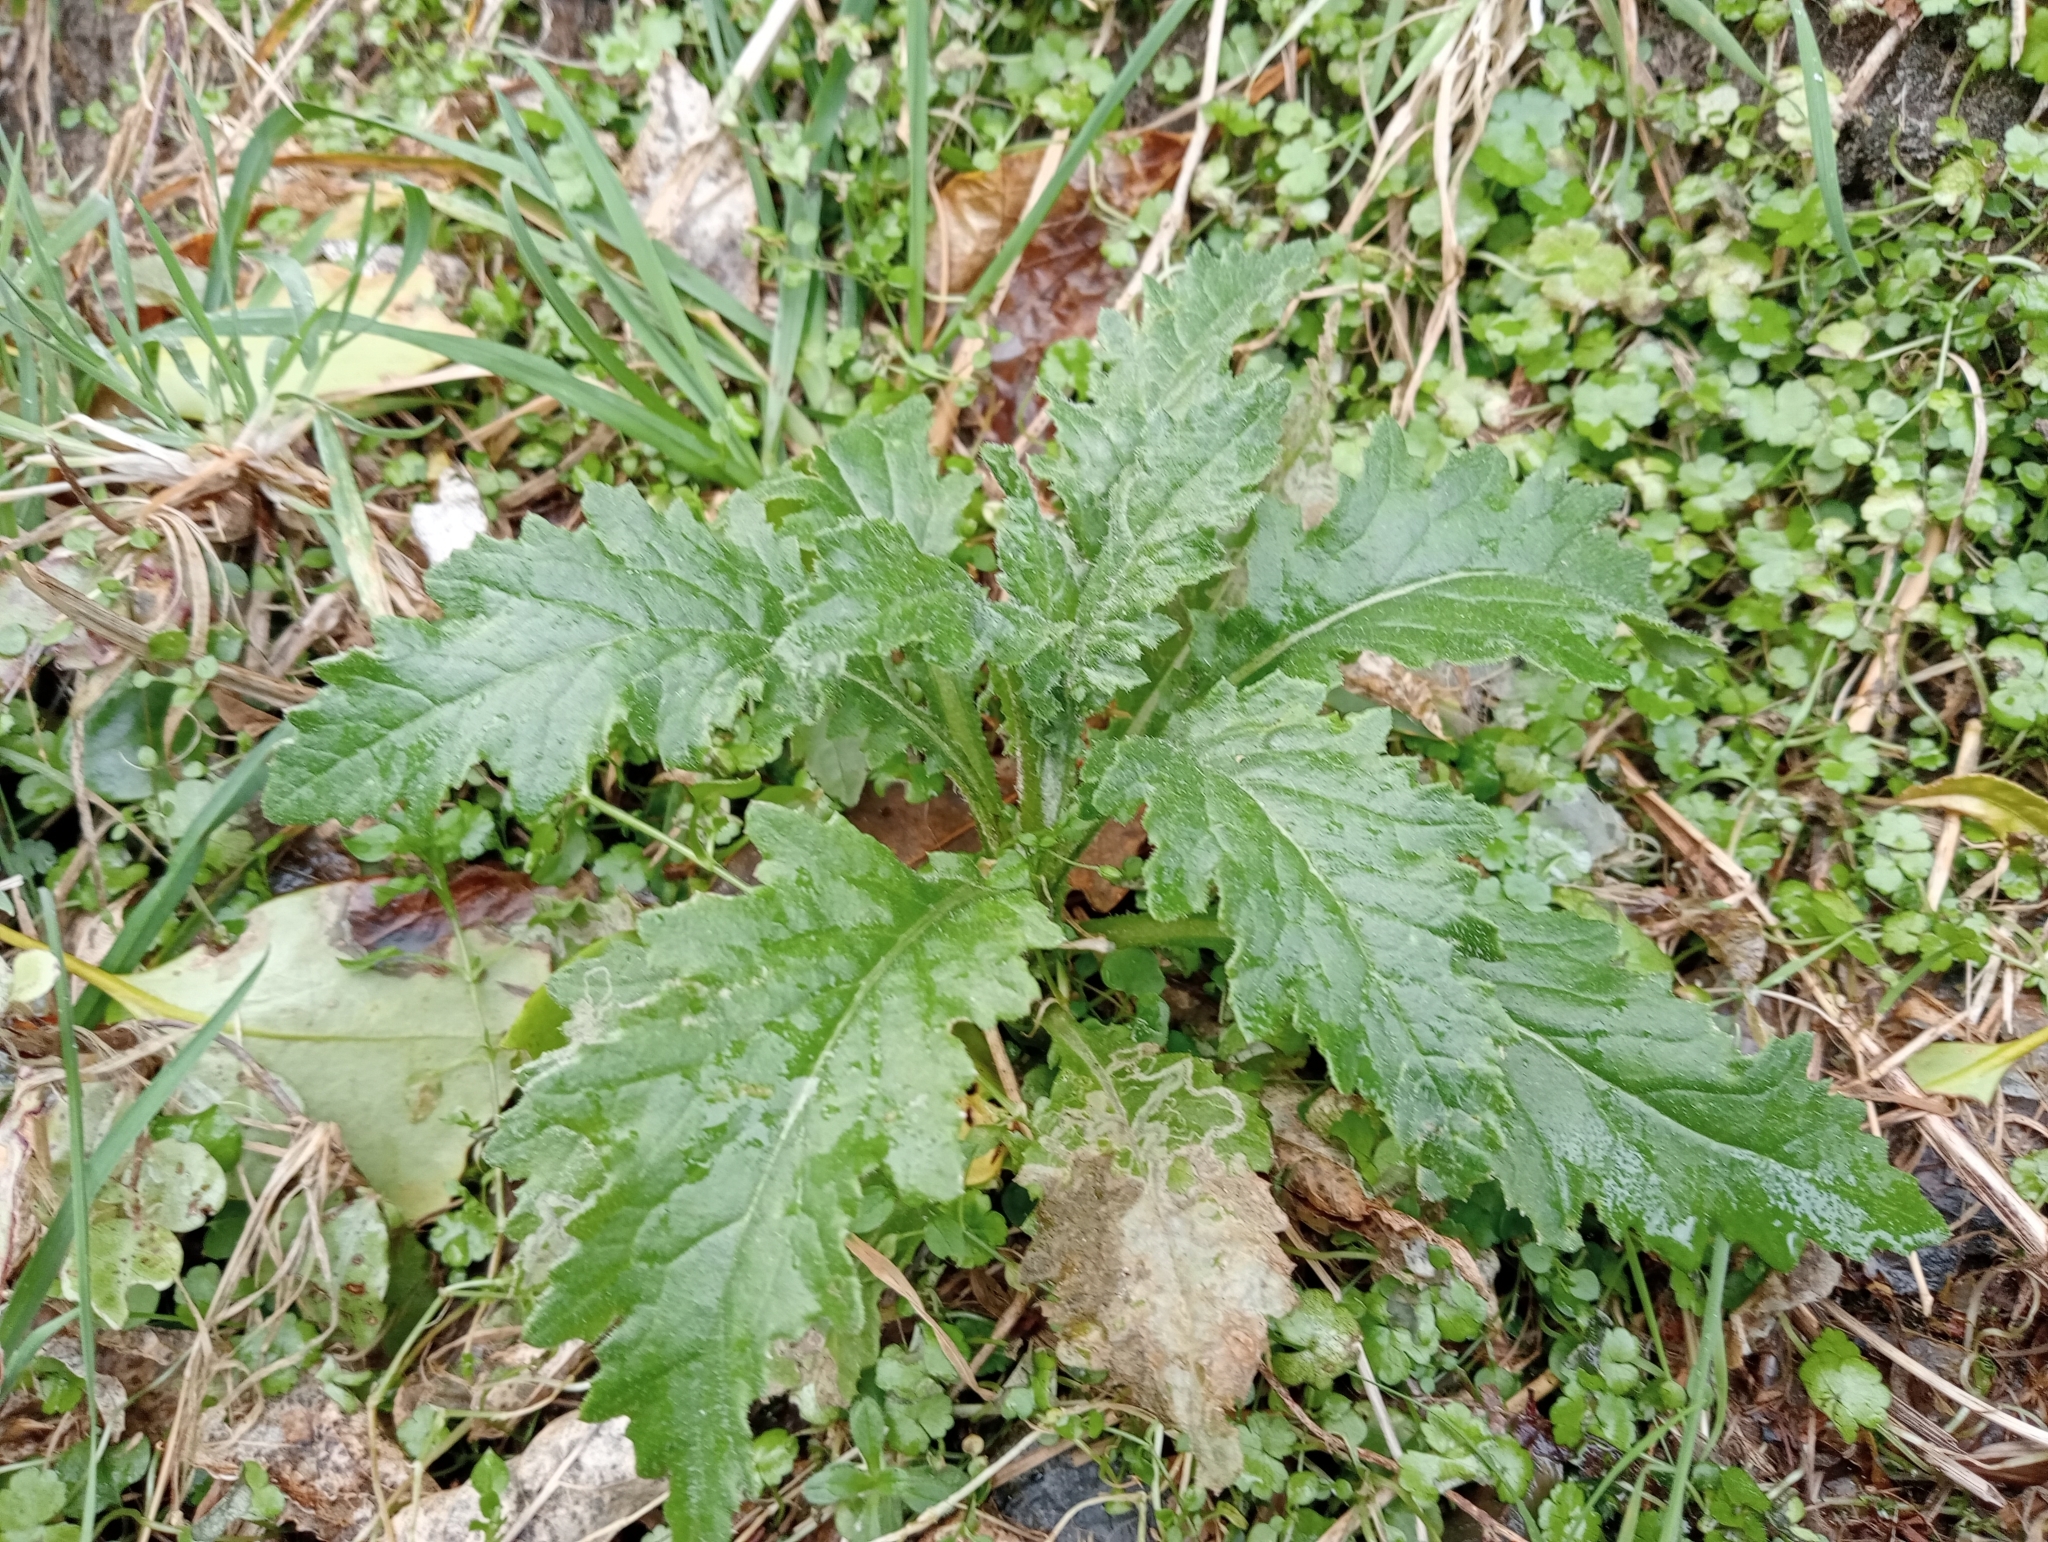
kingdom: Plantae
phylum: Tracheophyta
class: Magnoliopsida
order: Asterales
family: Asteraceae
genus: Senecio
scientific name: Senecio biserratus
